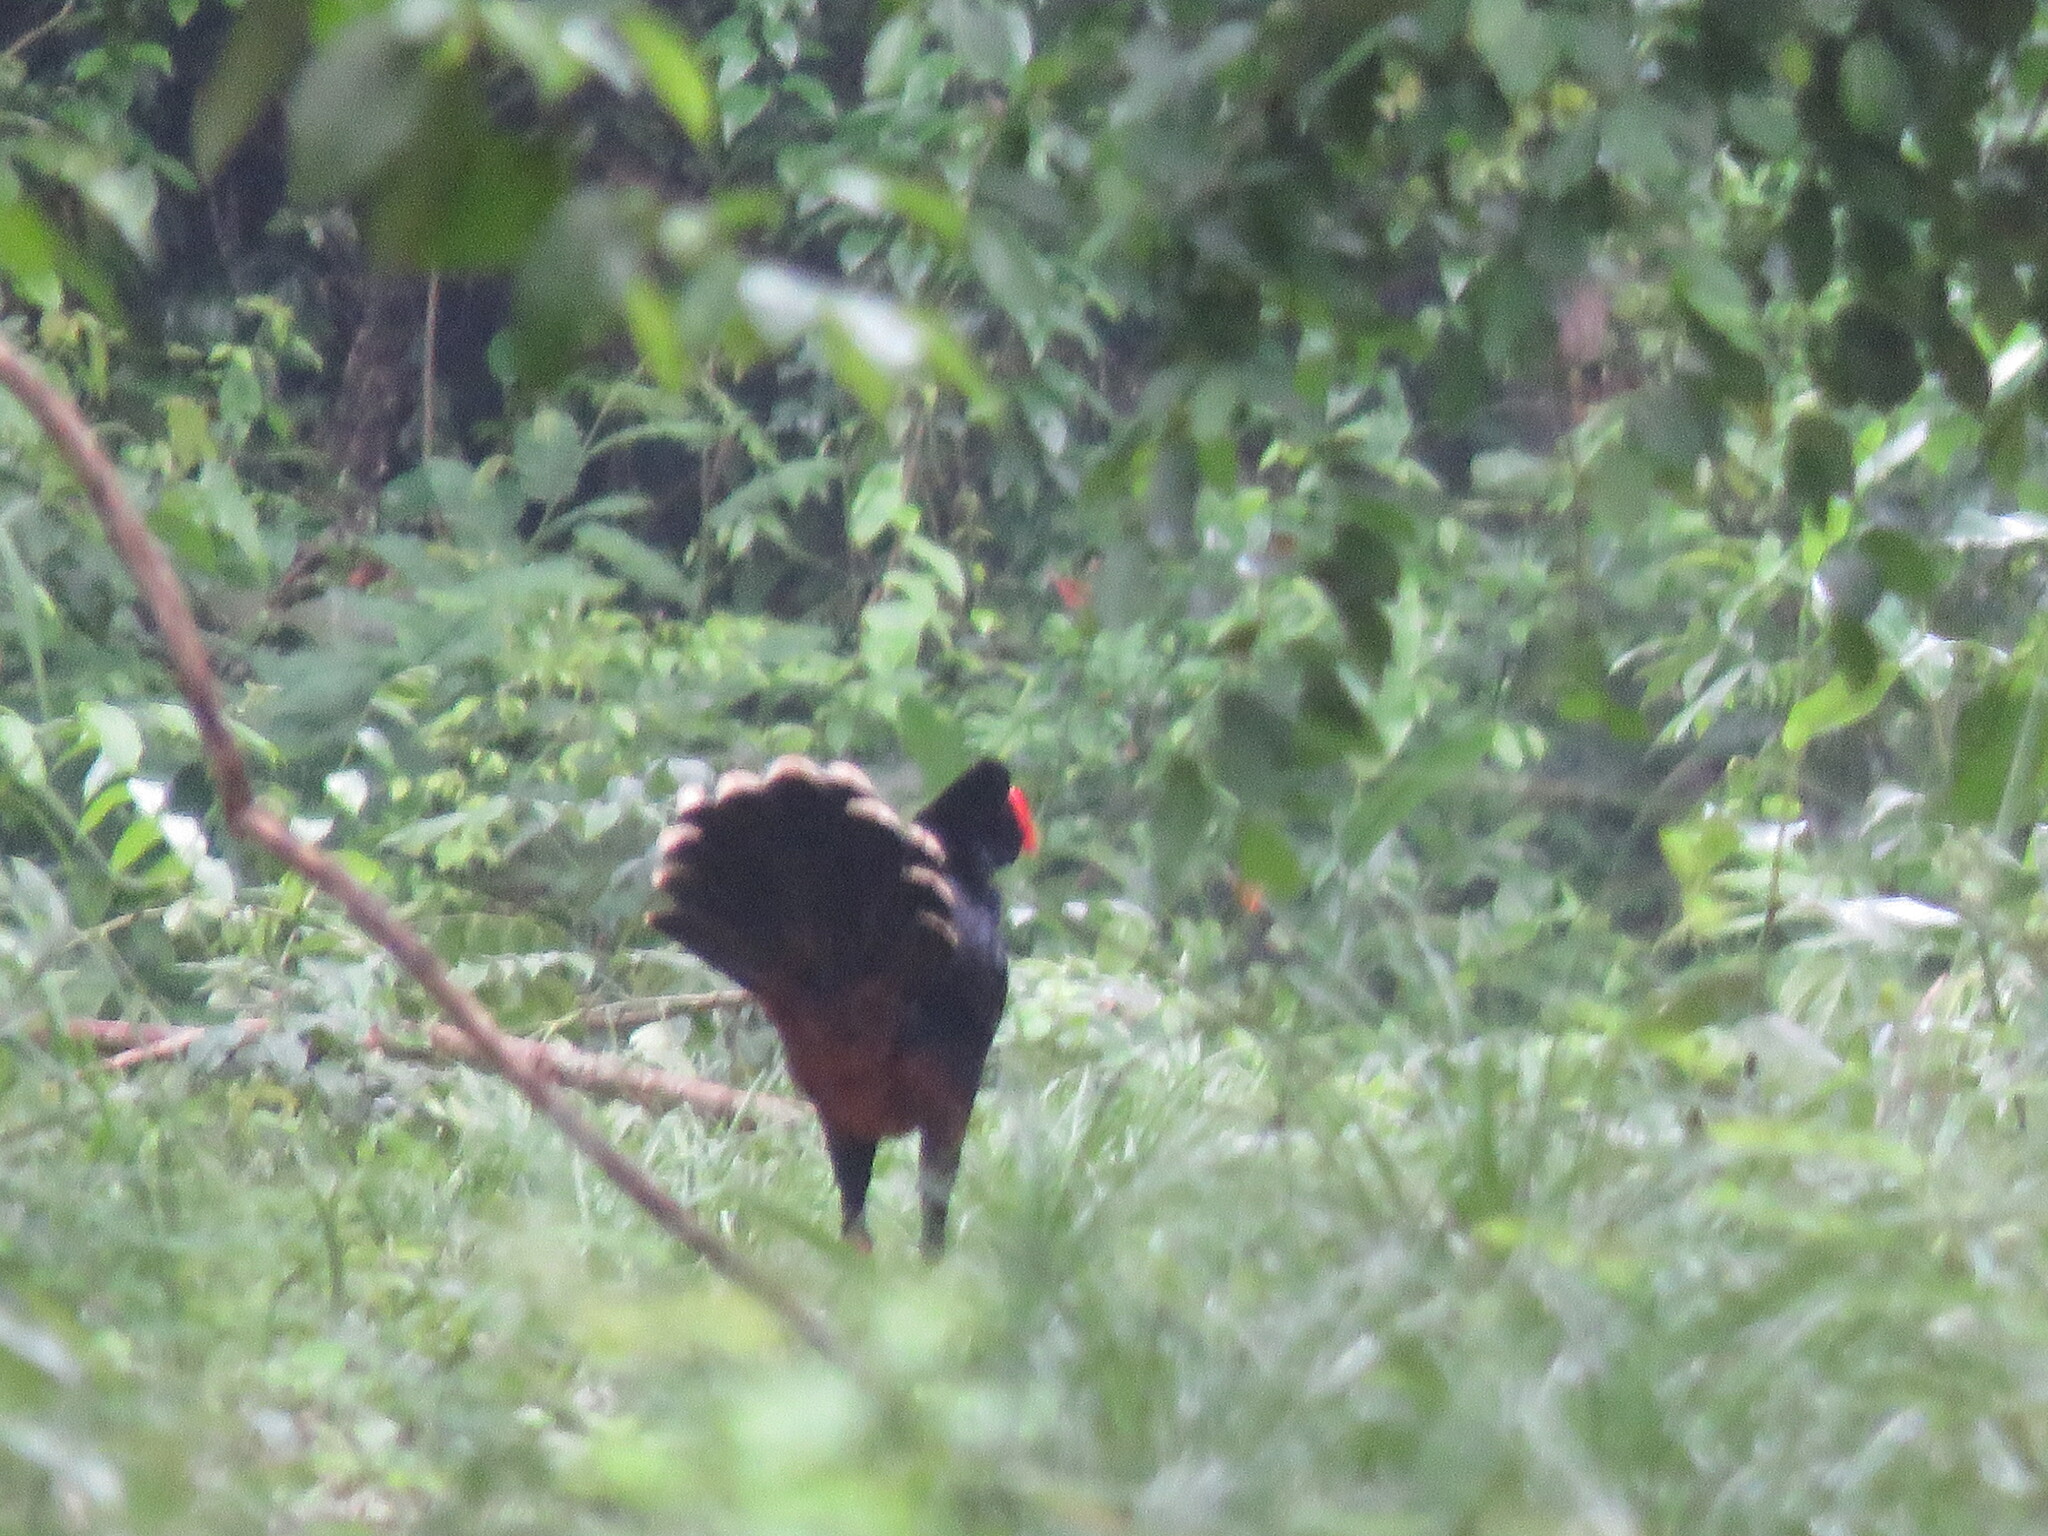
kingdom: Animalia
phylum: Chordata
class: Aves
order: Galliformes
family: Cracidae
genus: Mitu
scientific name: Mitu tuberosum
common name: Razor-billed curassow
